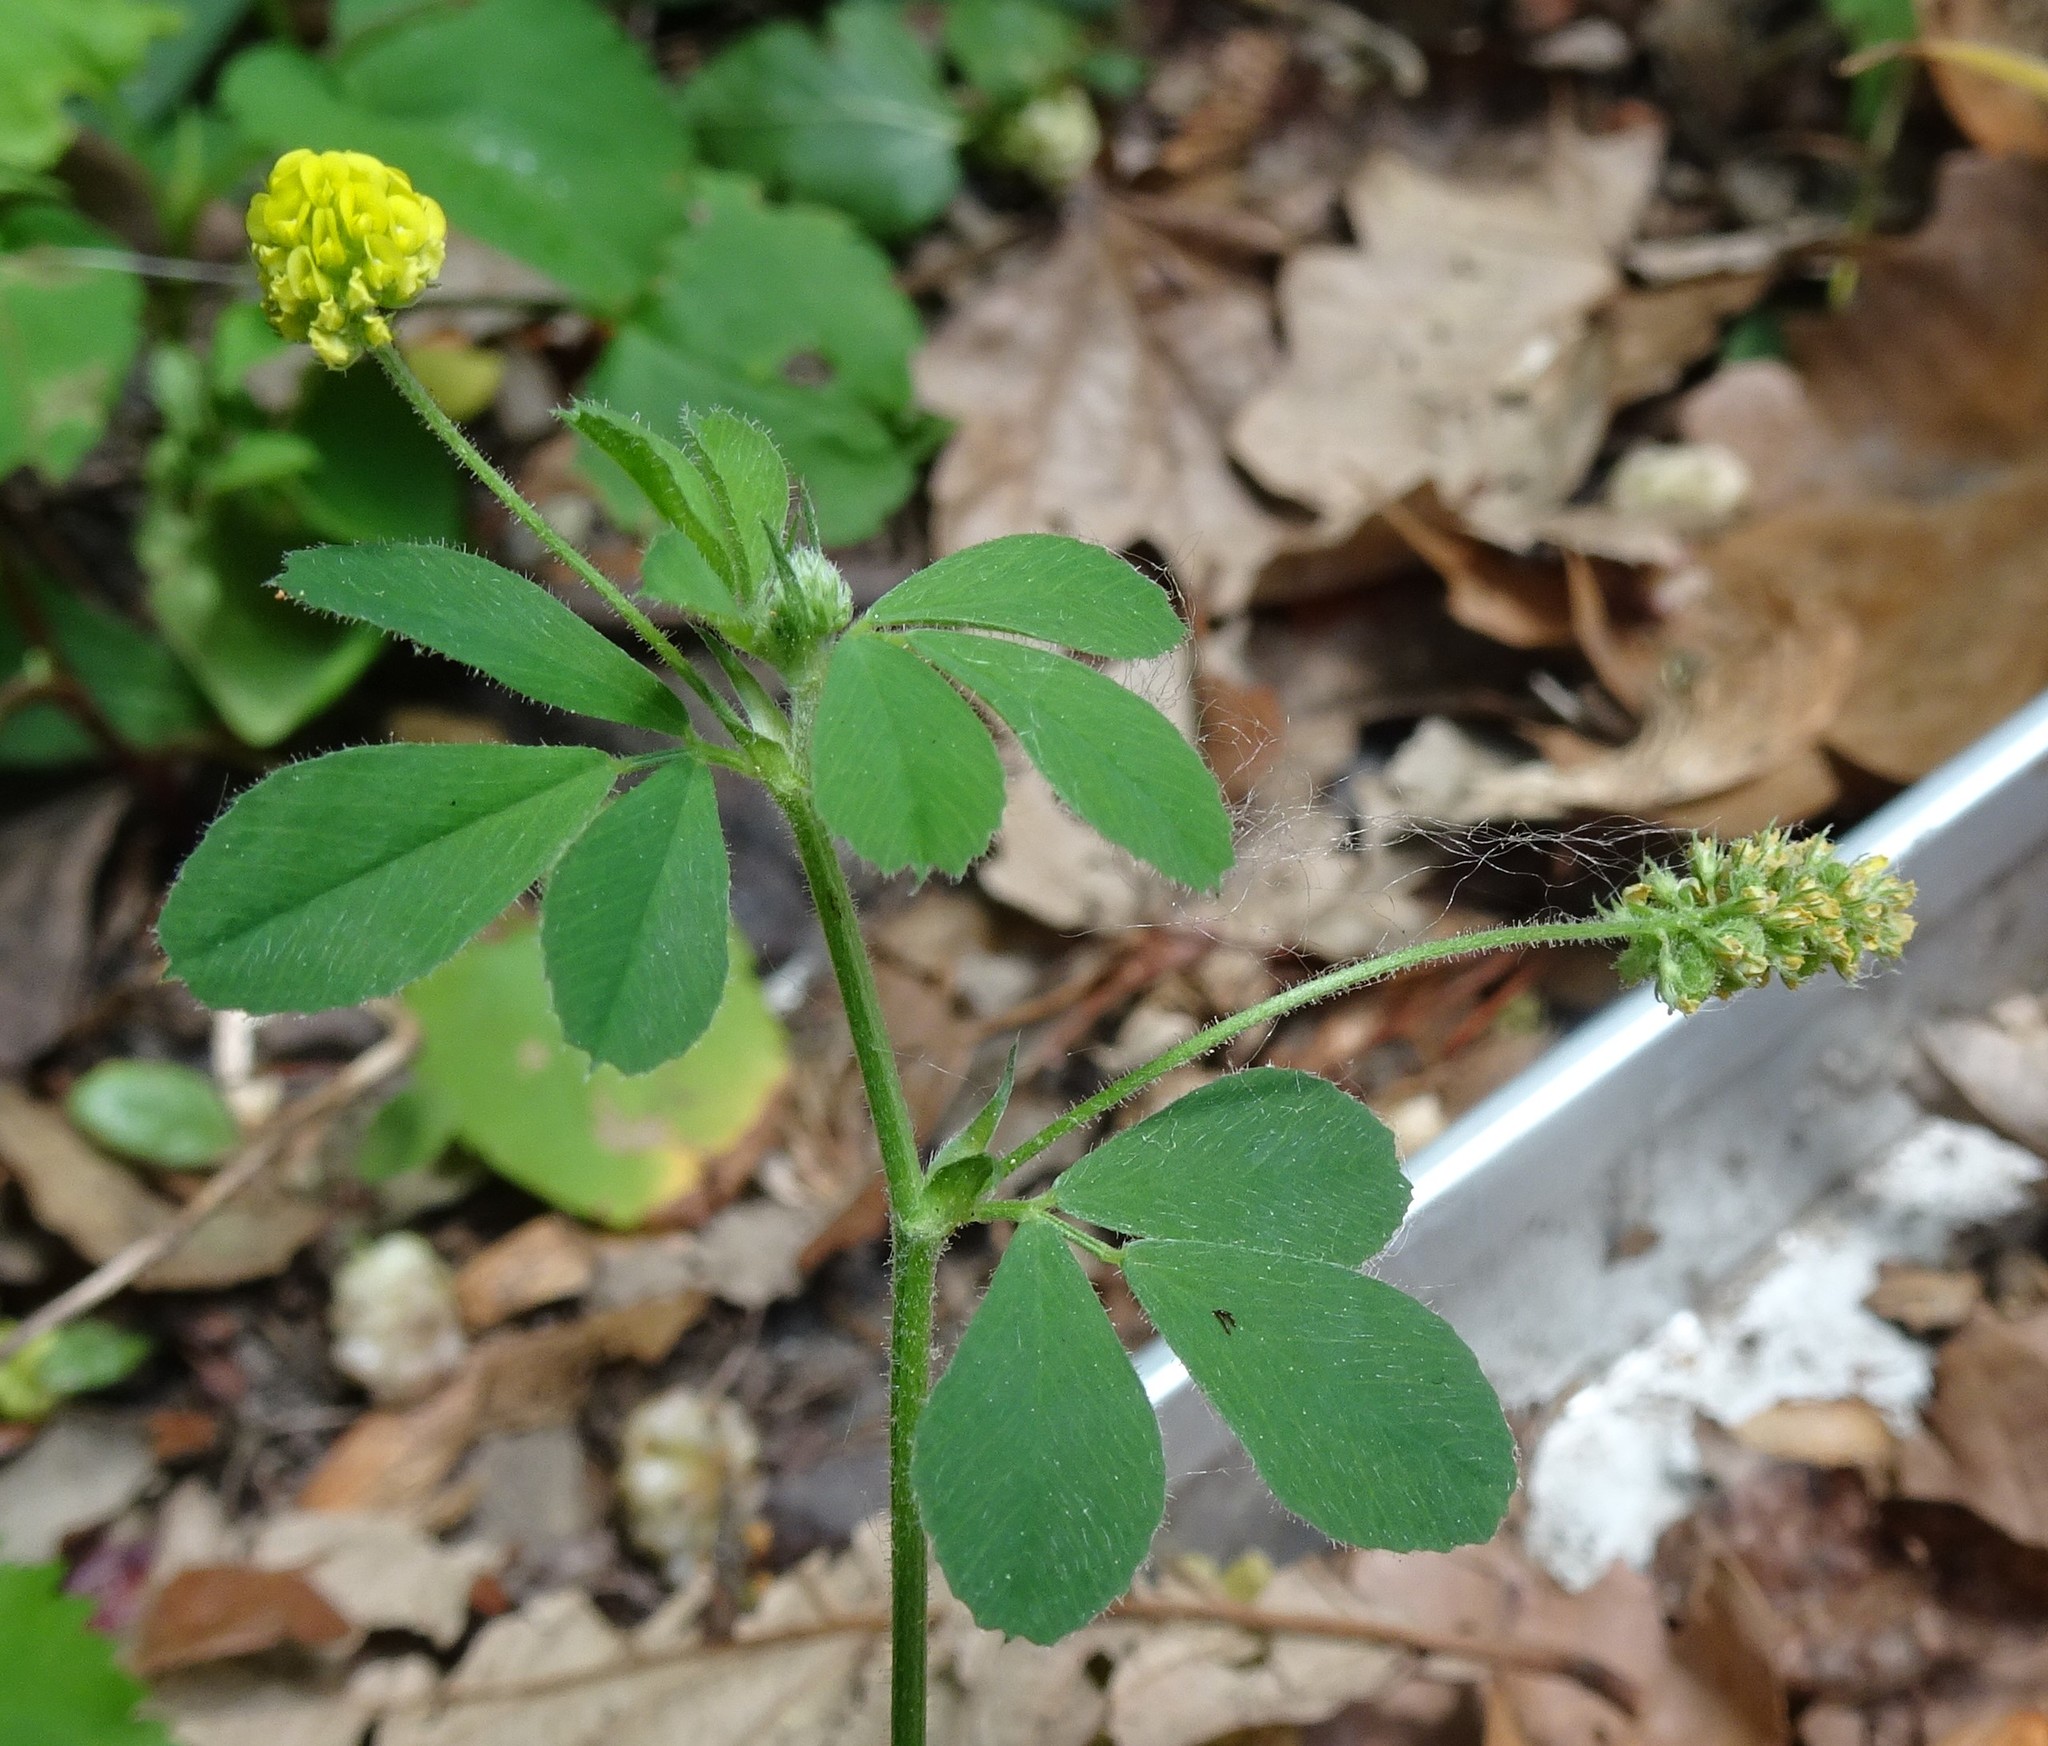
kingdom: Plantae
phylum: Tracheophyta
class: Magnoliopsida
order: Fabales
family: Fabaceae
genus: Medicago
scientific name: Medicago lupulina
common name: Black medick
